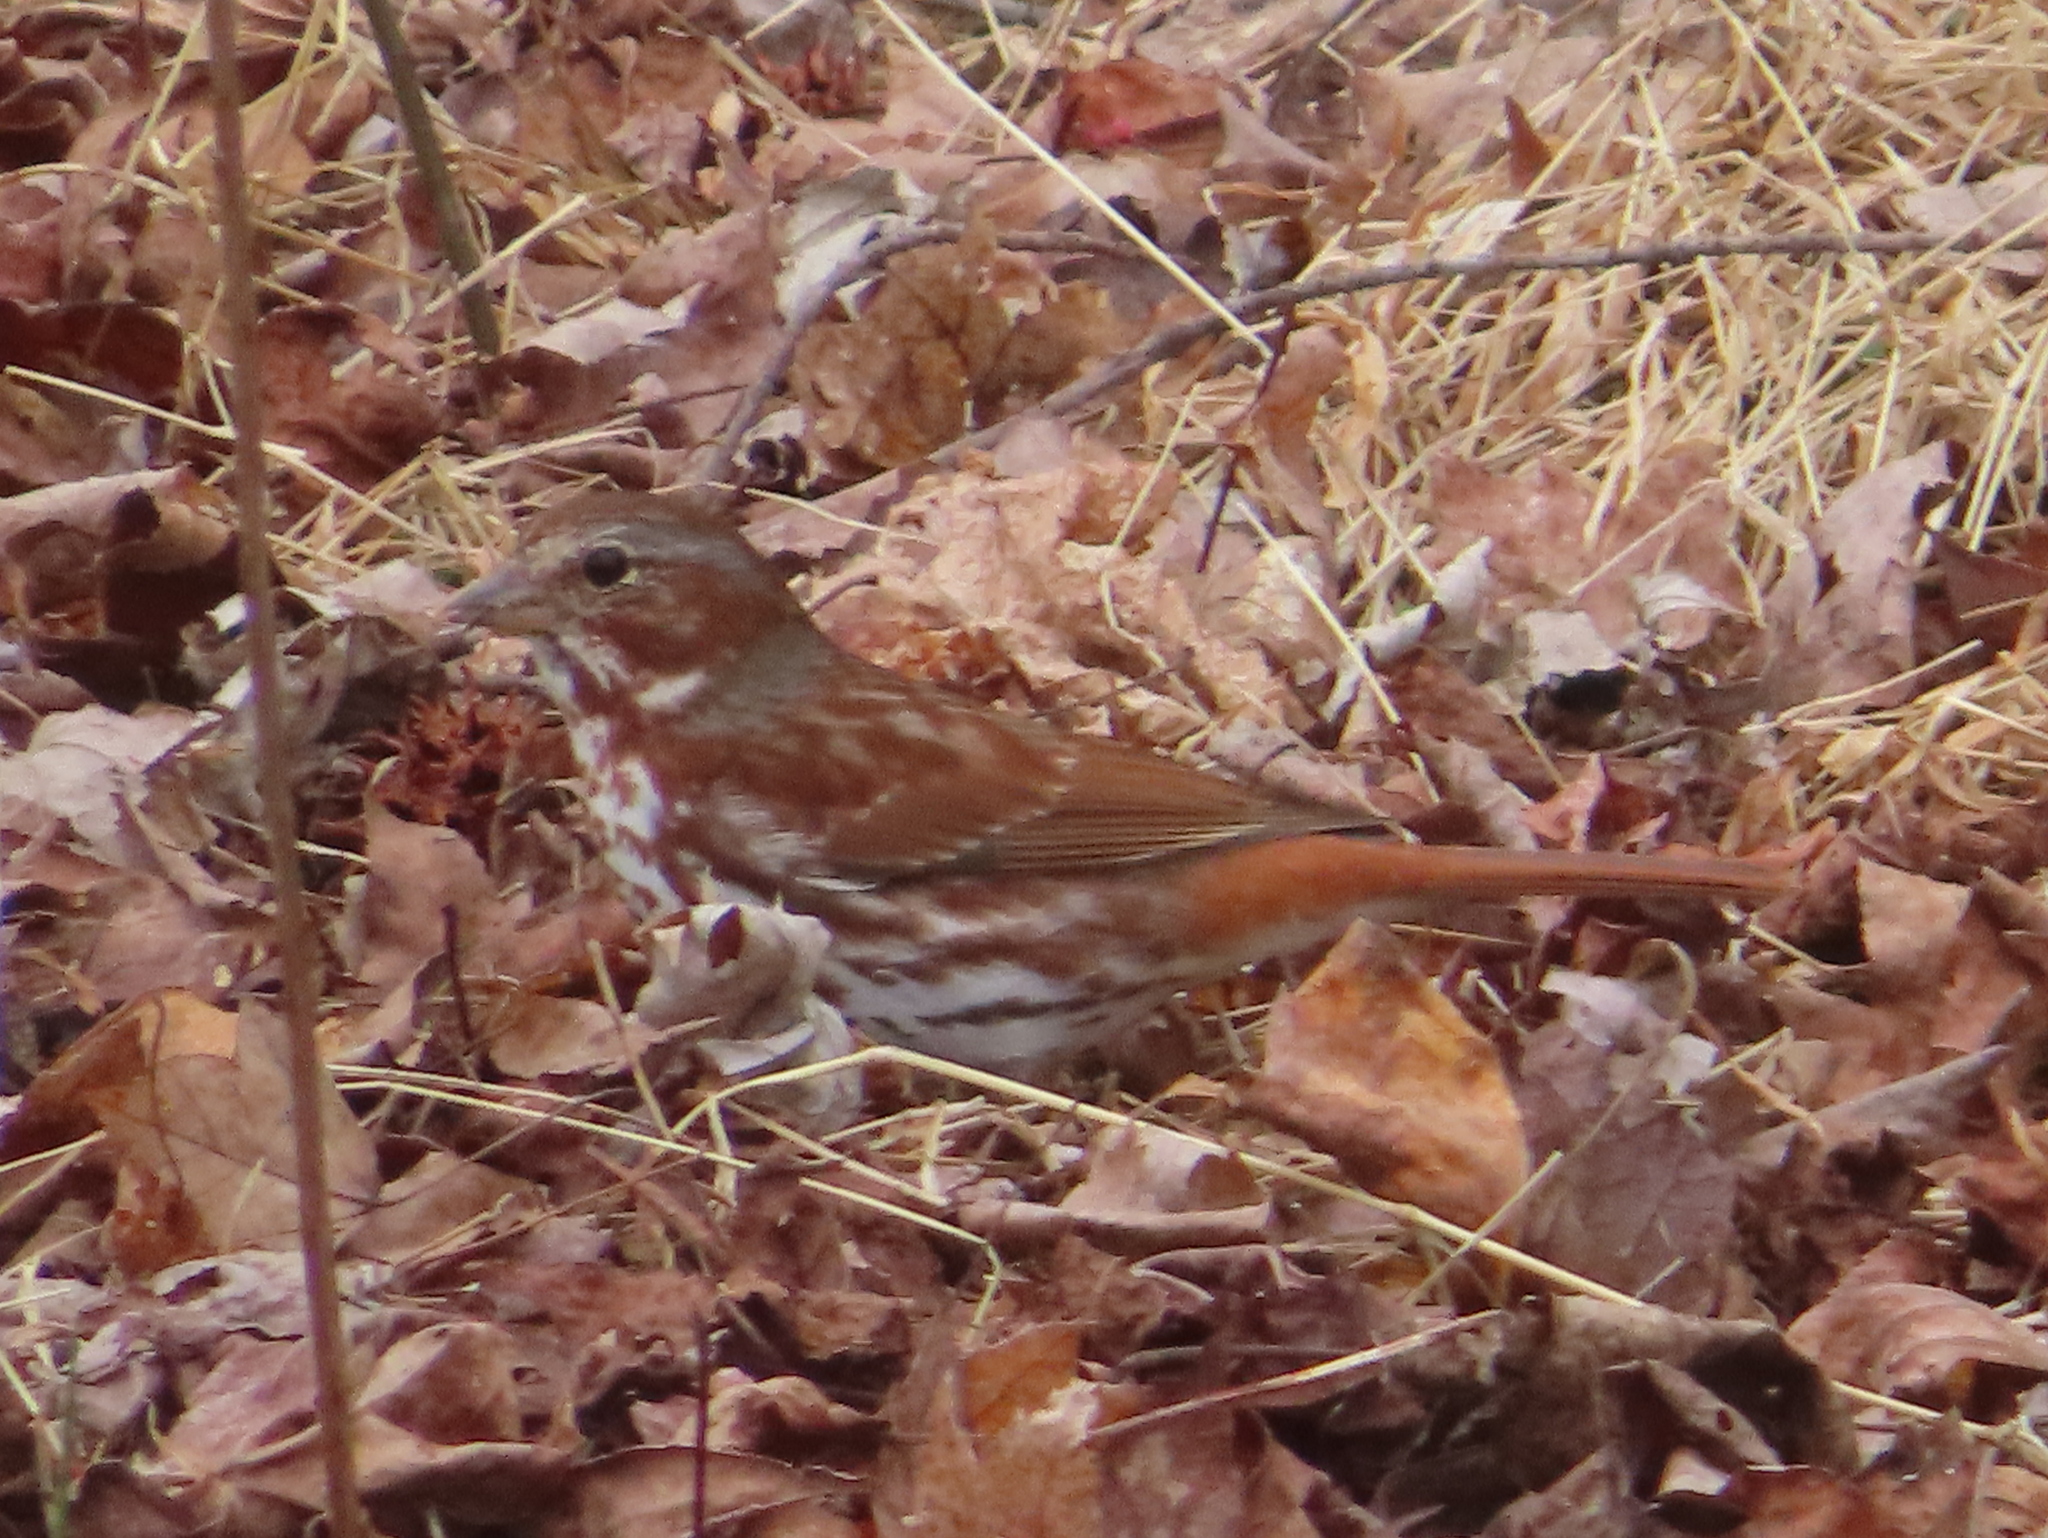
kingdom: Animalia
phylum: Chordata
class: Aves
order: Passeriformes
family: Passerellidae
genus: Passerella
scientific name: Passerella iliaca
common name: Fox sparrow
